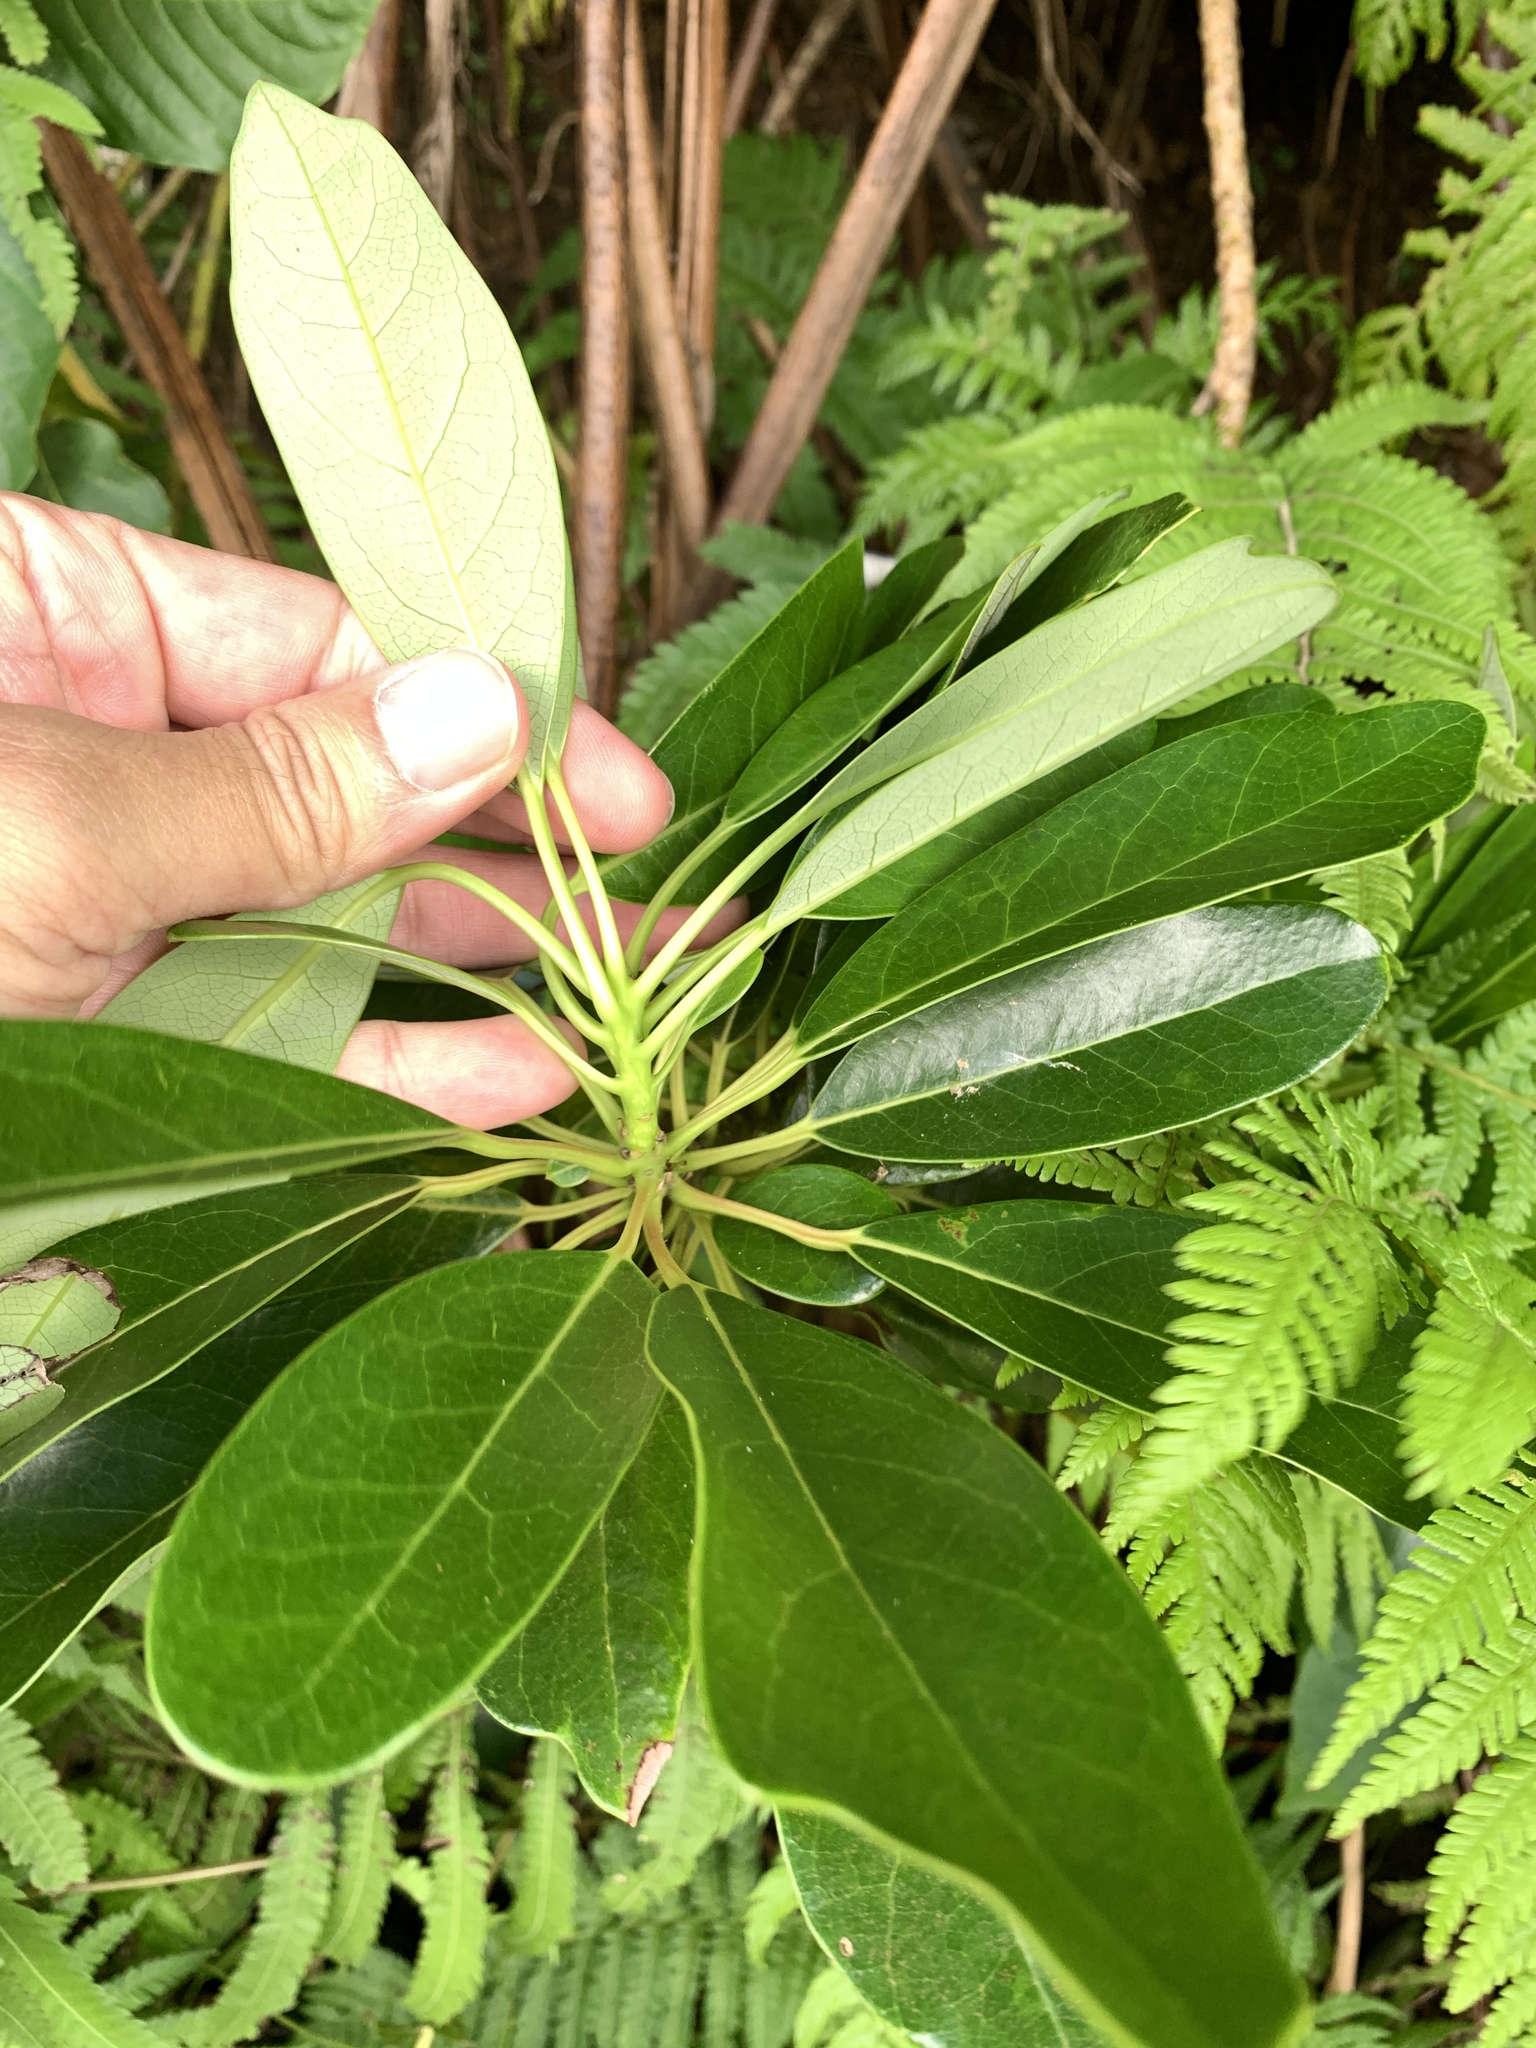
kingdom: Plantae
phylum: Tracheophyta
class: Magnoliopsida
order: Saxifragales
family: Daphniphyllaceae
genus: Daphniphyllum
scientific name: Daphniphyllum glaucescens
